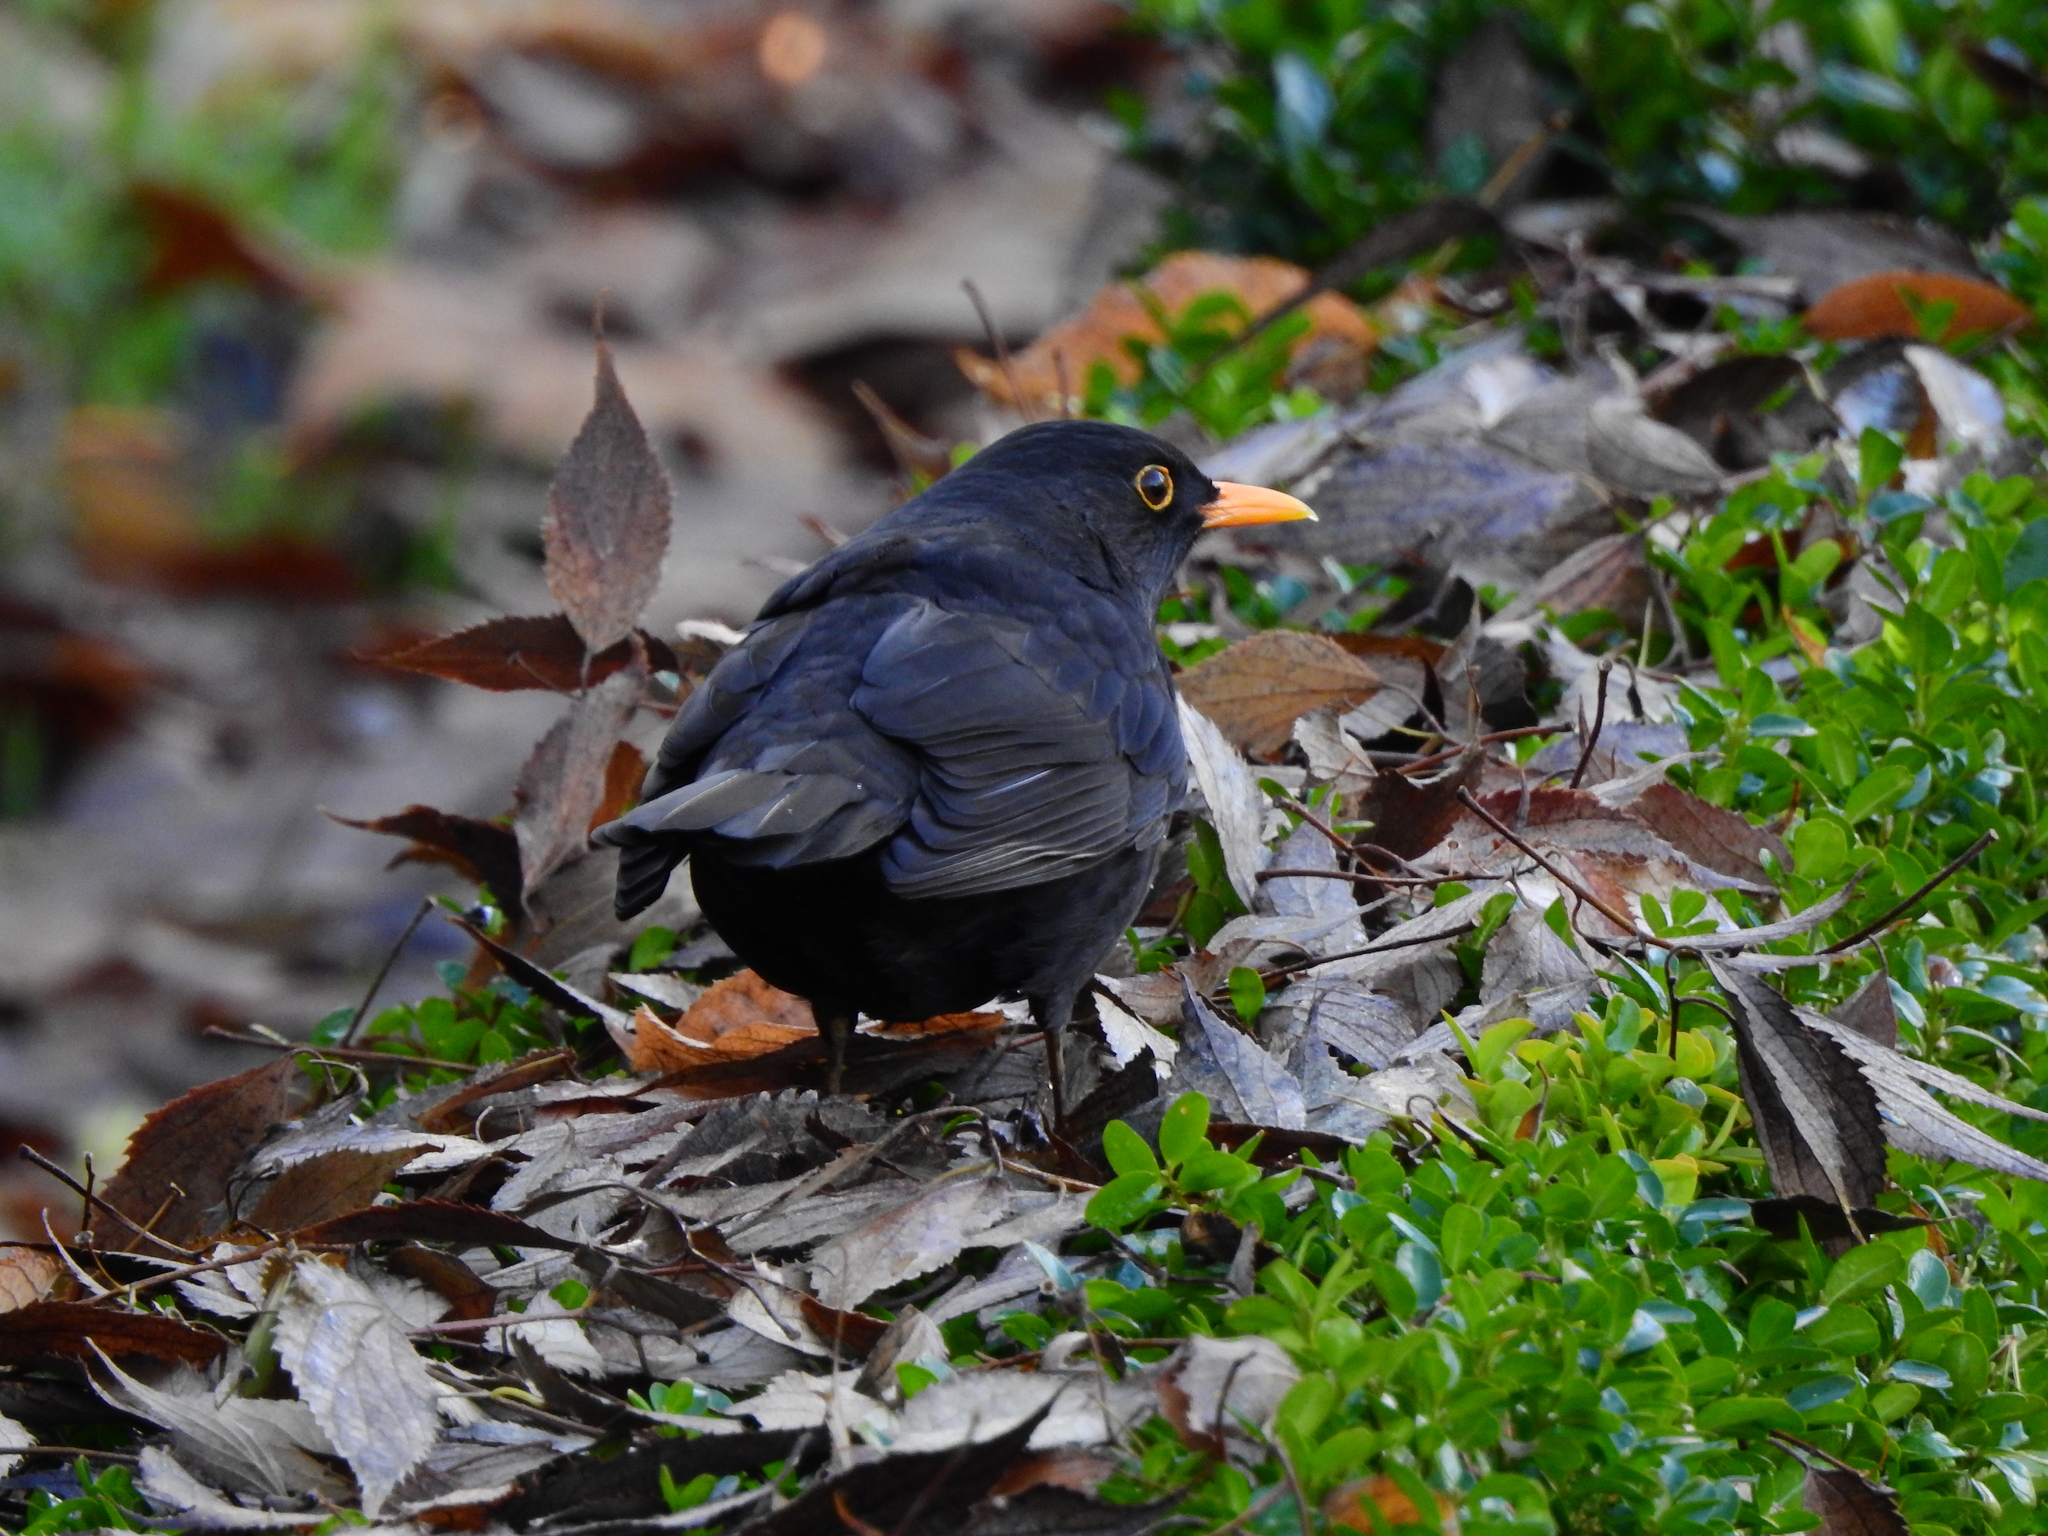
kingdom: Animalia
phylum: Chordata
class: Aves
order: Passeriformes
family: Turdidae
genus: Turdus
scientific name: Turdus merula
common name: Common blackbird
